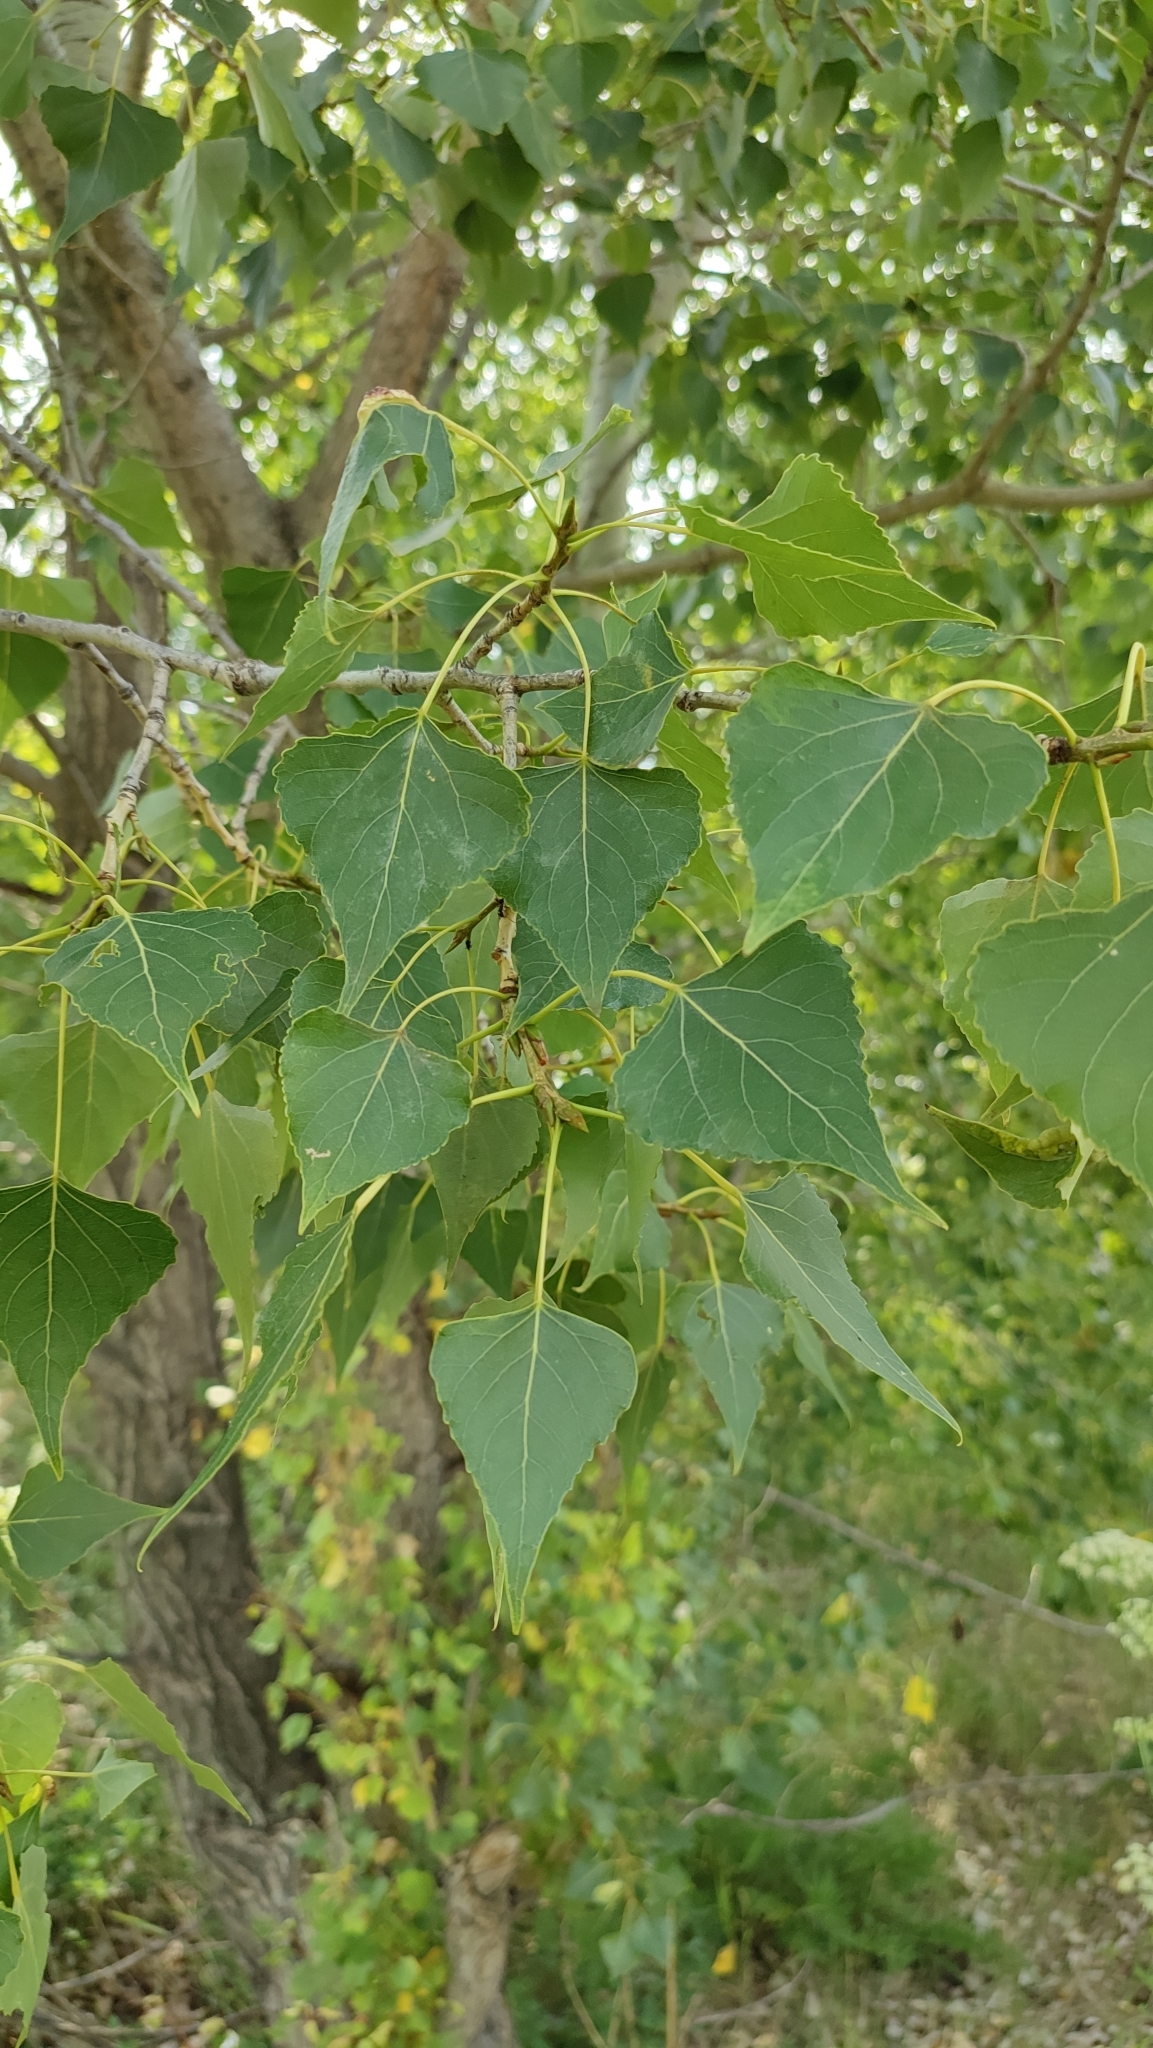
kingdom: Plantae
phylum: Tracheophyta
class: Magnoliopsida
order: Malpighiales
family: Salicaceae
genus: Populus
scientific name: Populus nigra
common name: Black poplar
